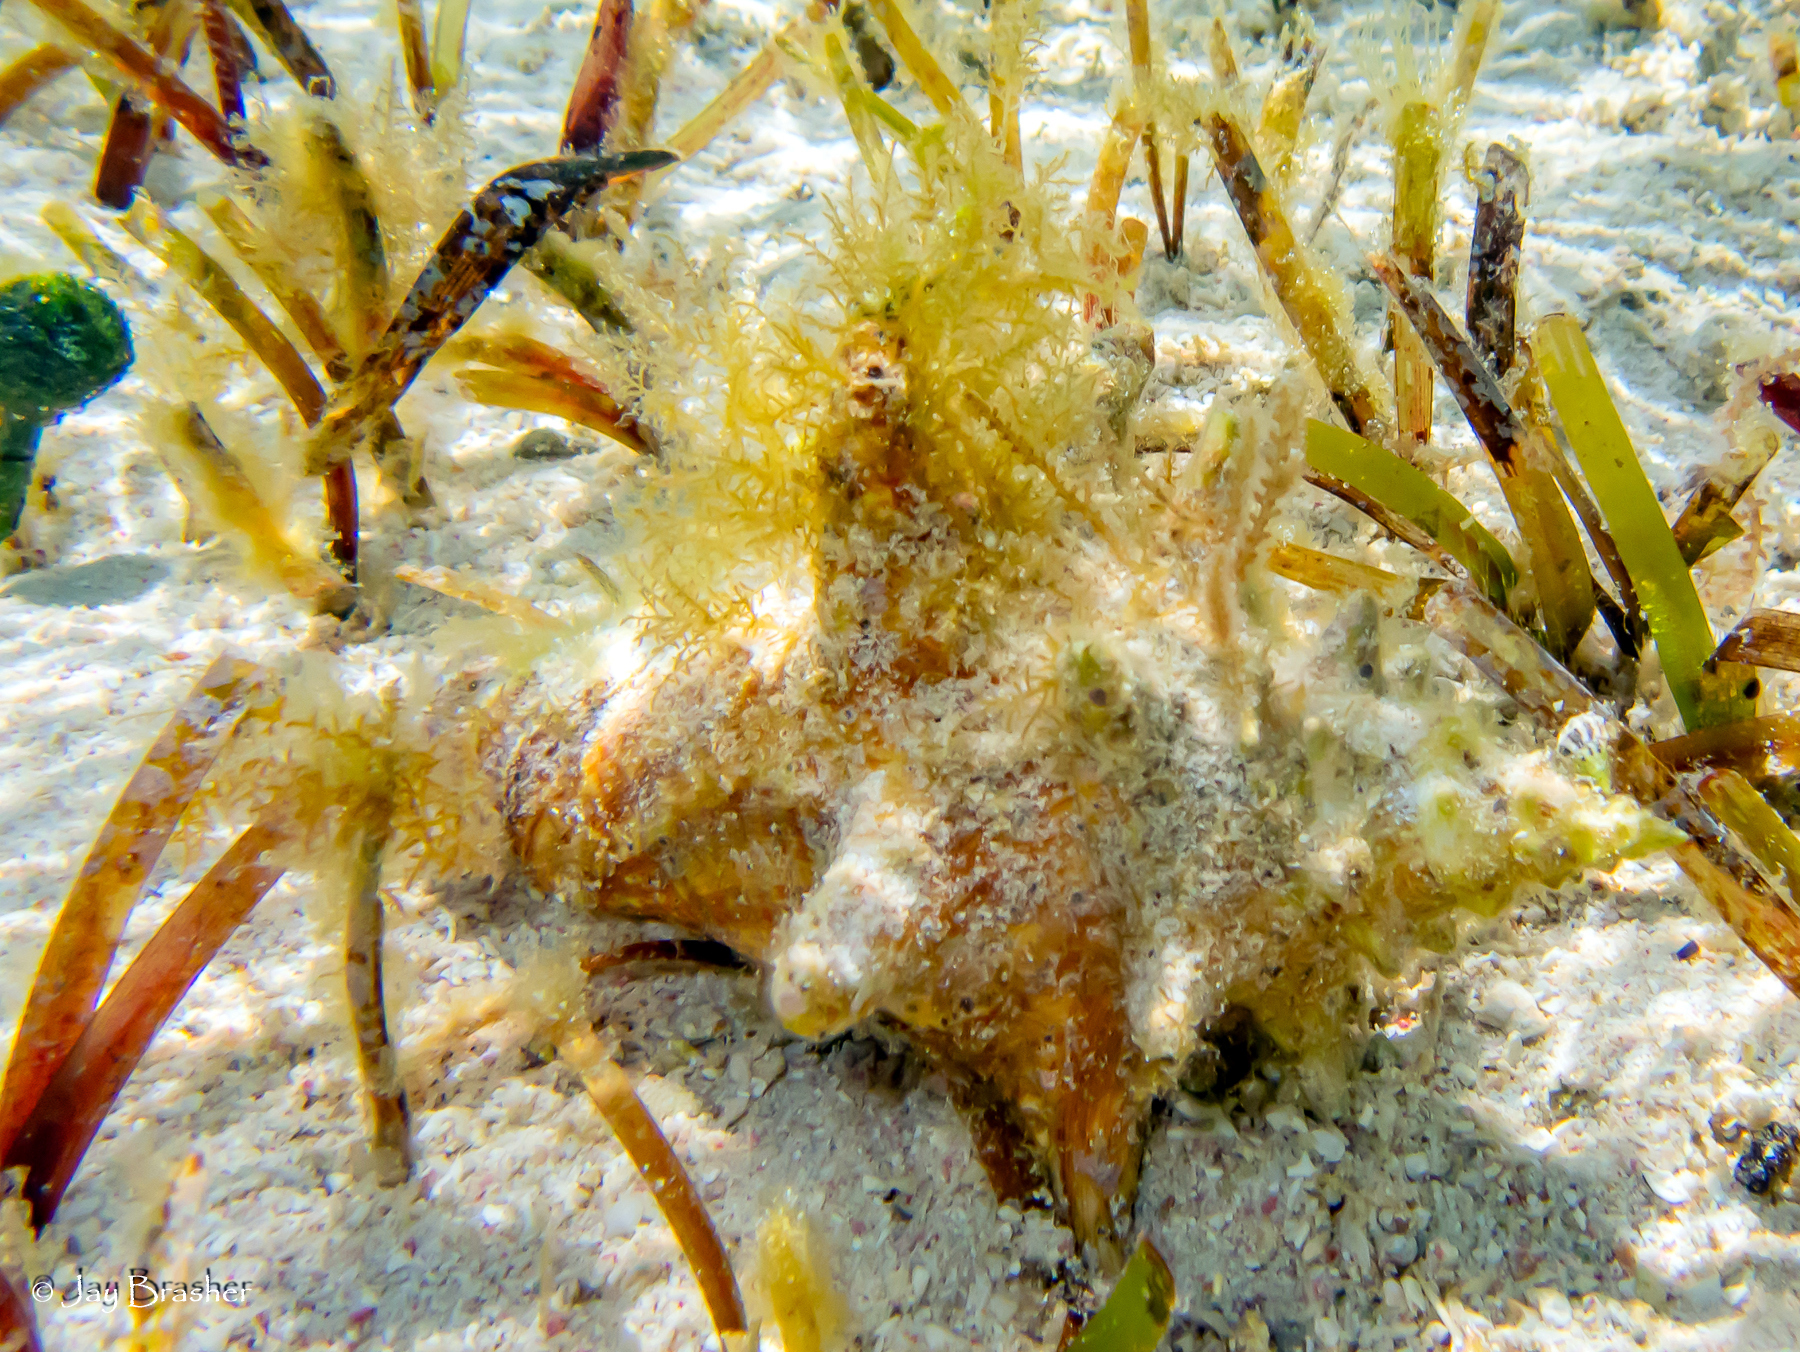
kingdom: Animalia
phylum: Mollusca
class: Gastropoda
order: Littorinimorpha
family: Strombidae
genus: Aliger
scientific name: Aliger gigas
